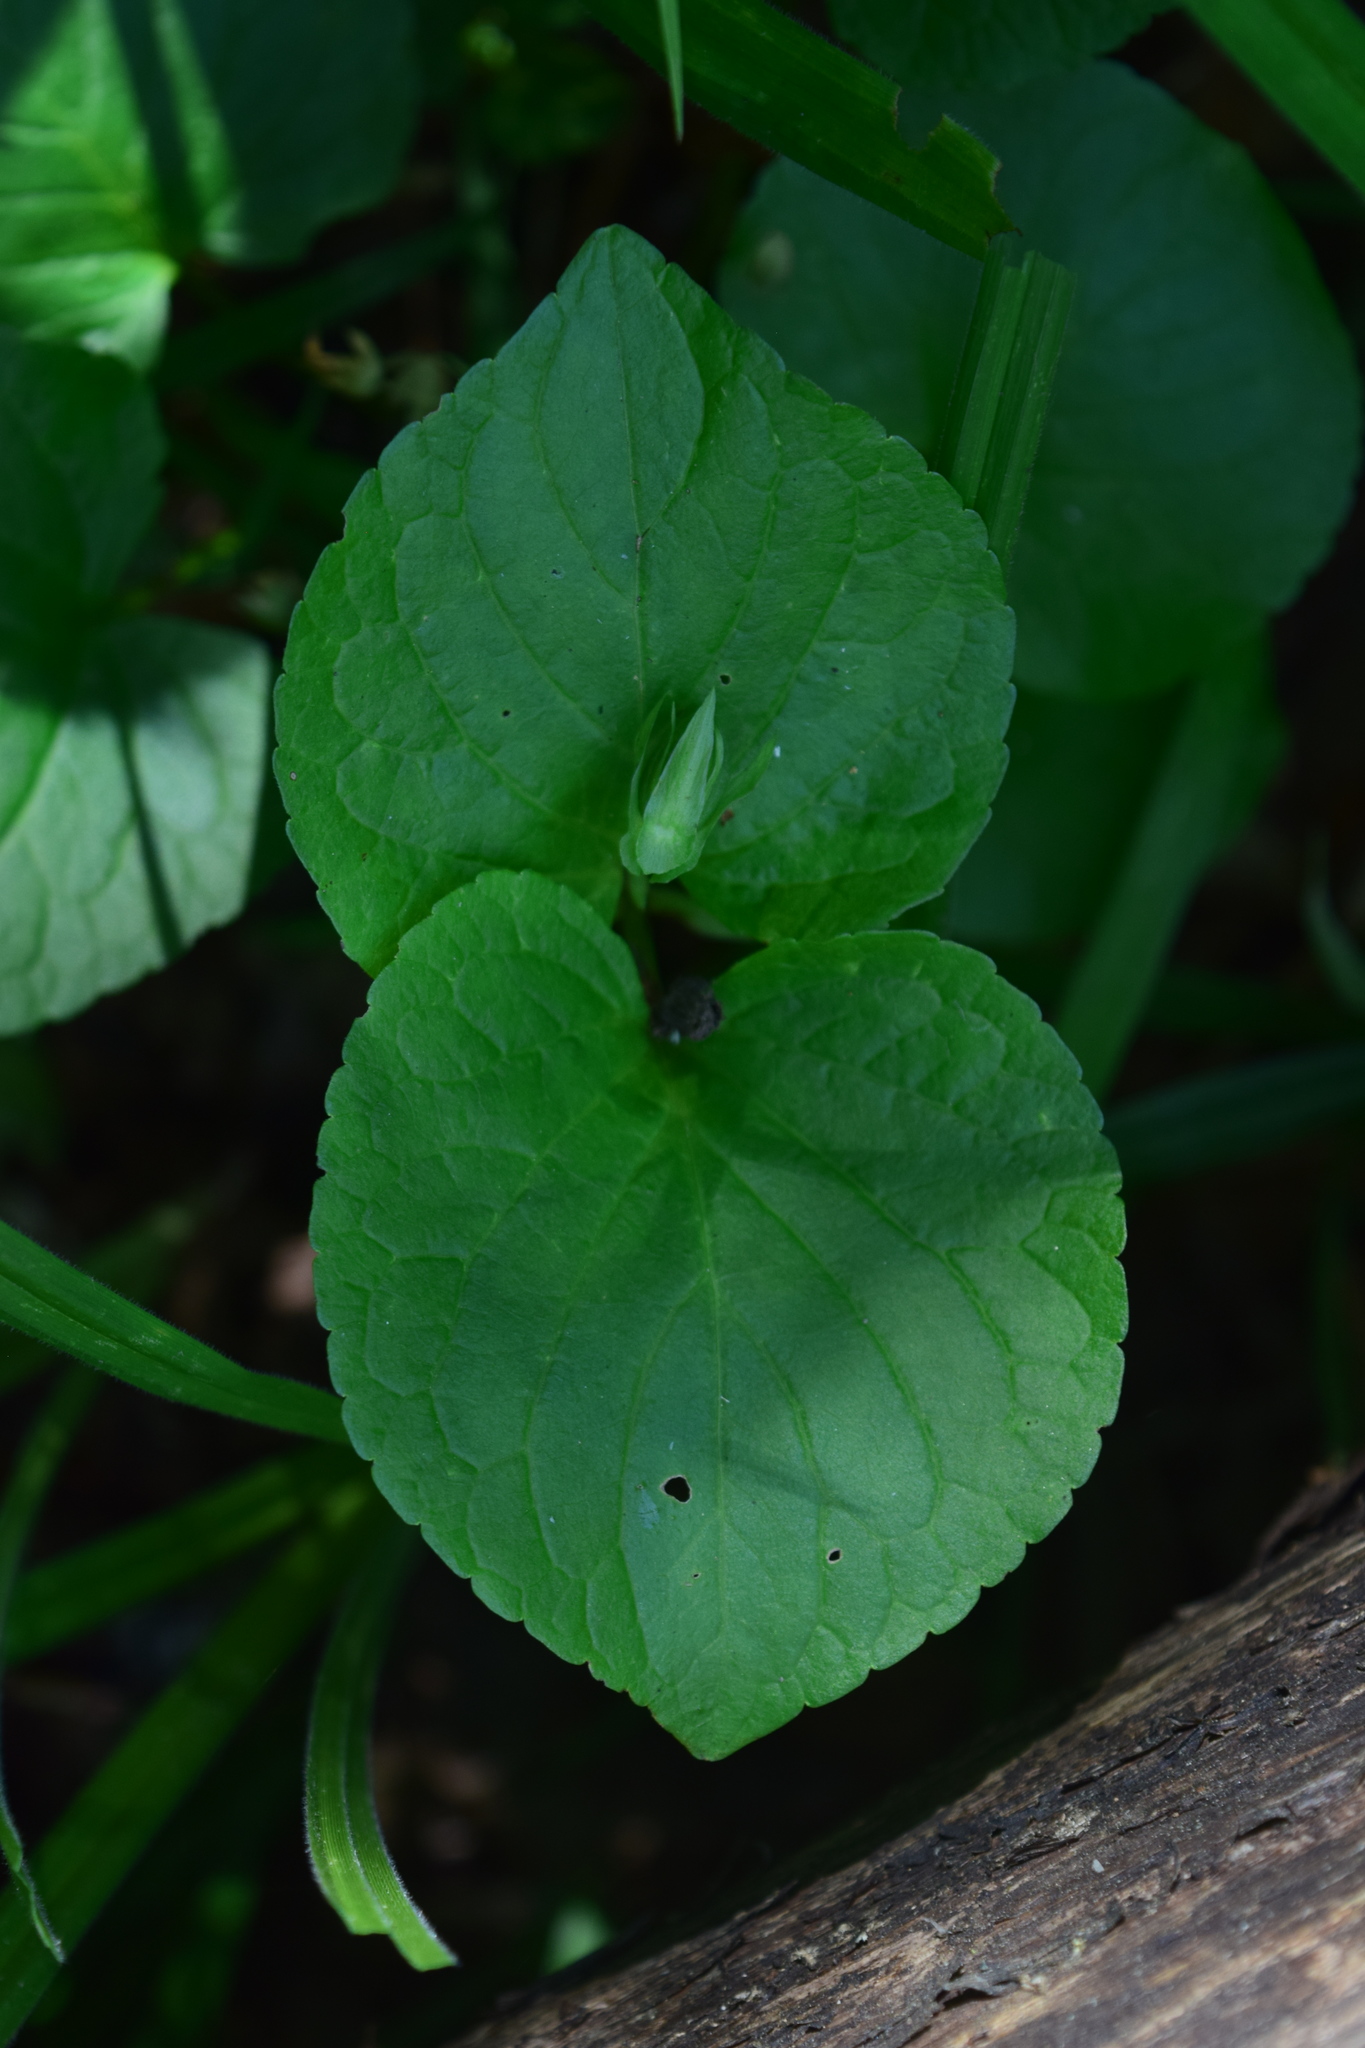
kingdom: Plantae
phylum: Tracheophyta
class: Magnoliopsida
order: Malpighiales
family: Violaceae
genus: Viola
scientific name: Viola mirabilis
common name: Wonder violet
